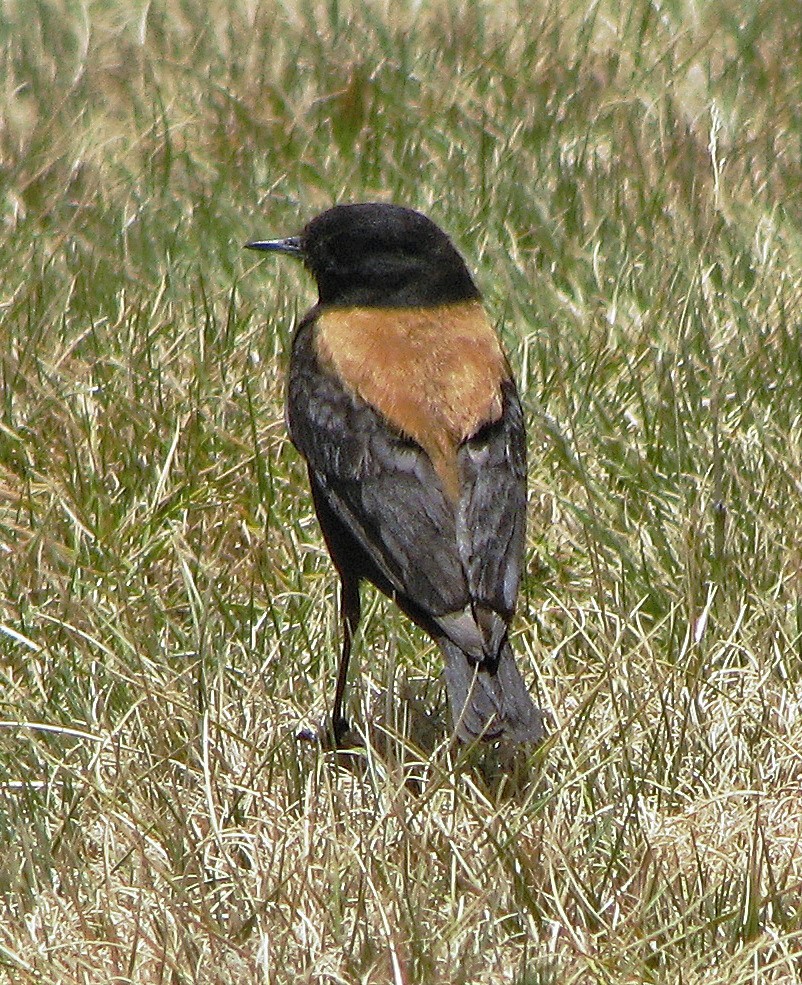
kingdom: Animalia
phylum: Chordata
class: Aves
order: Passeriformes
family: Tyrannidae
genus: Lessonia
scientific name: Lessonia oreas
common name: Andean negrito
